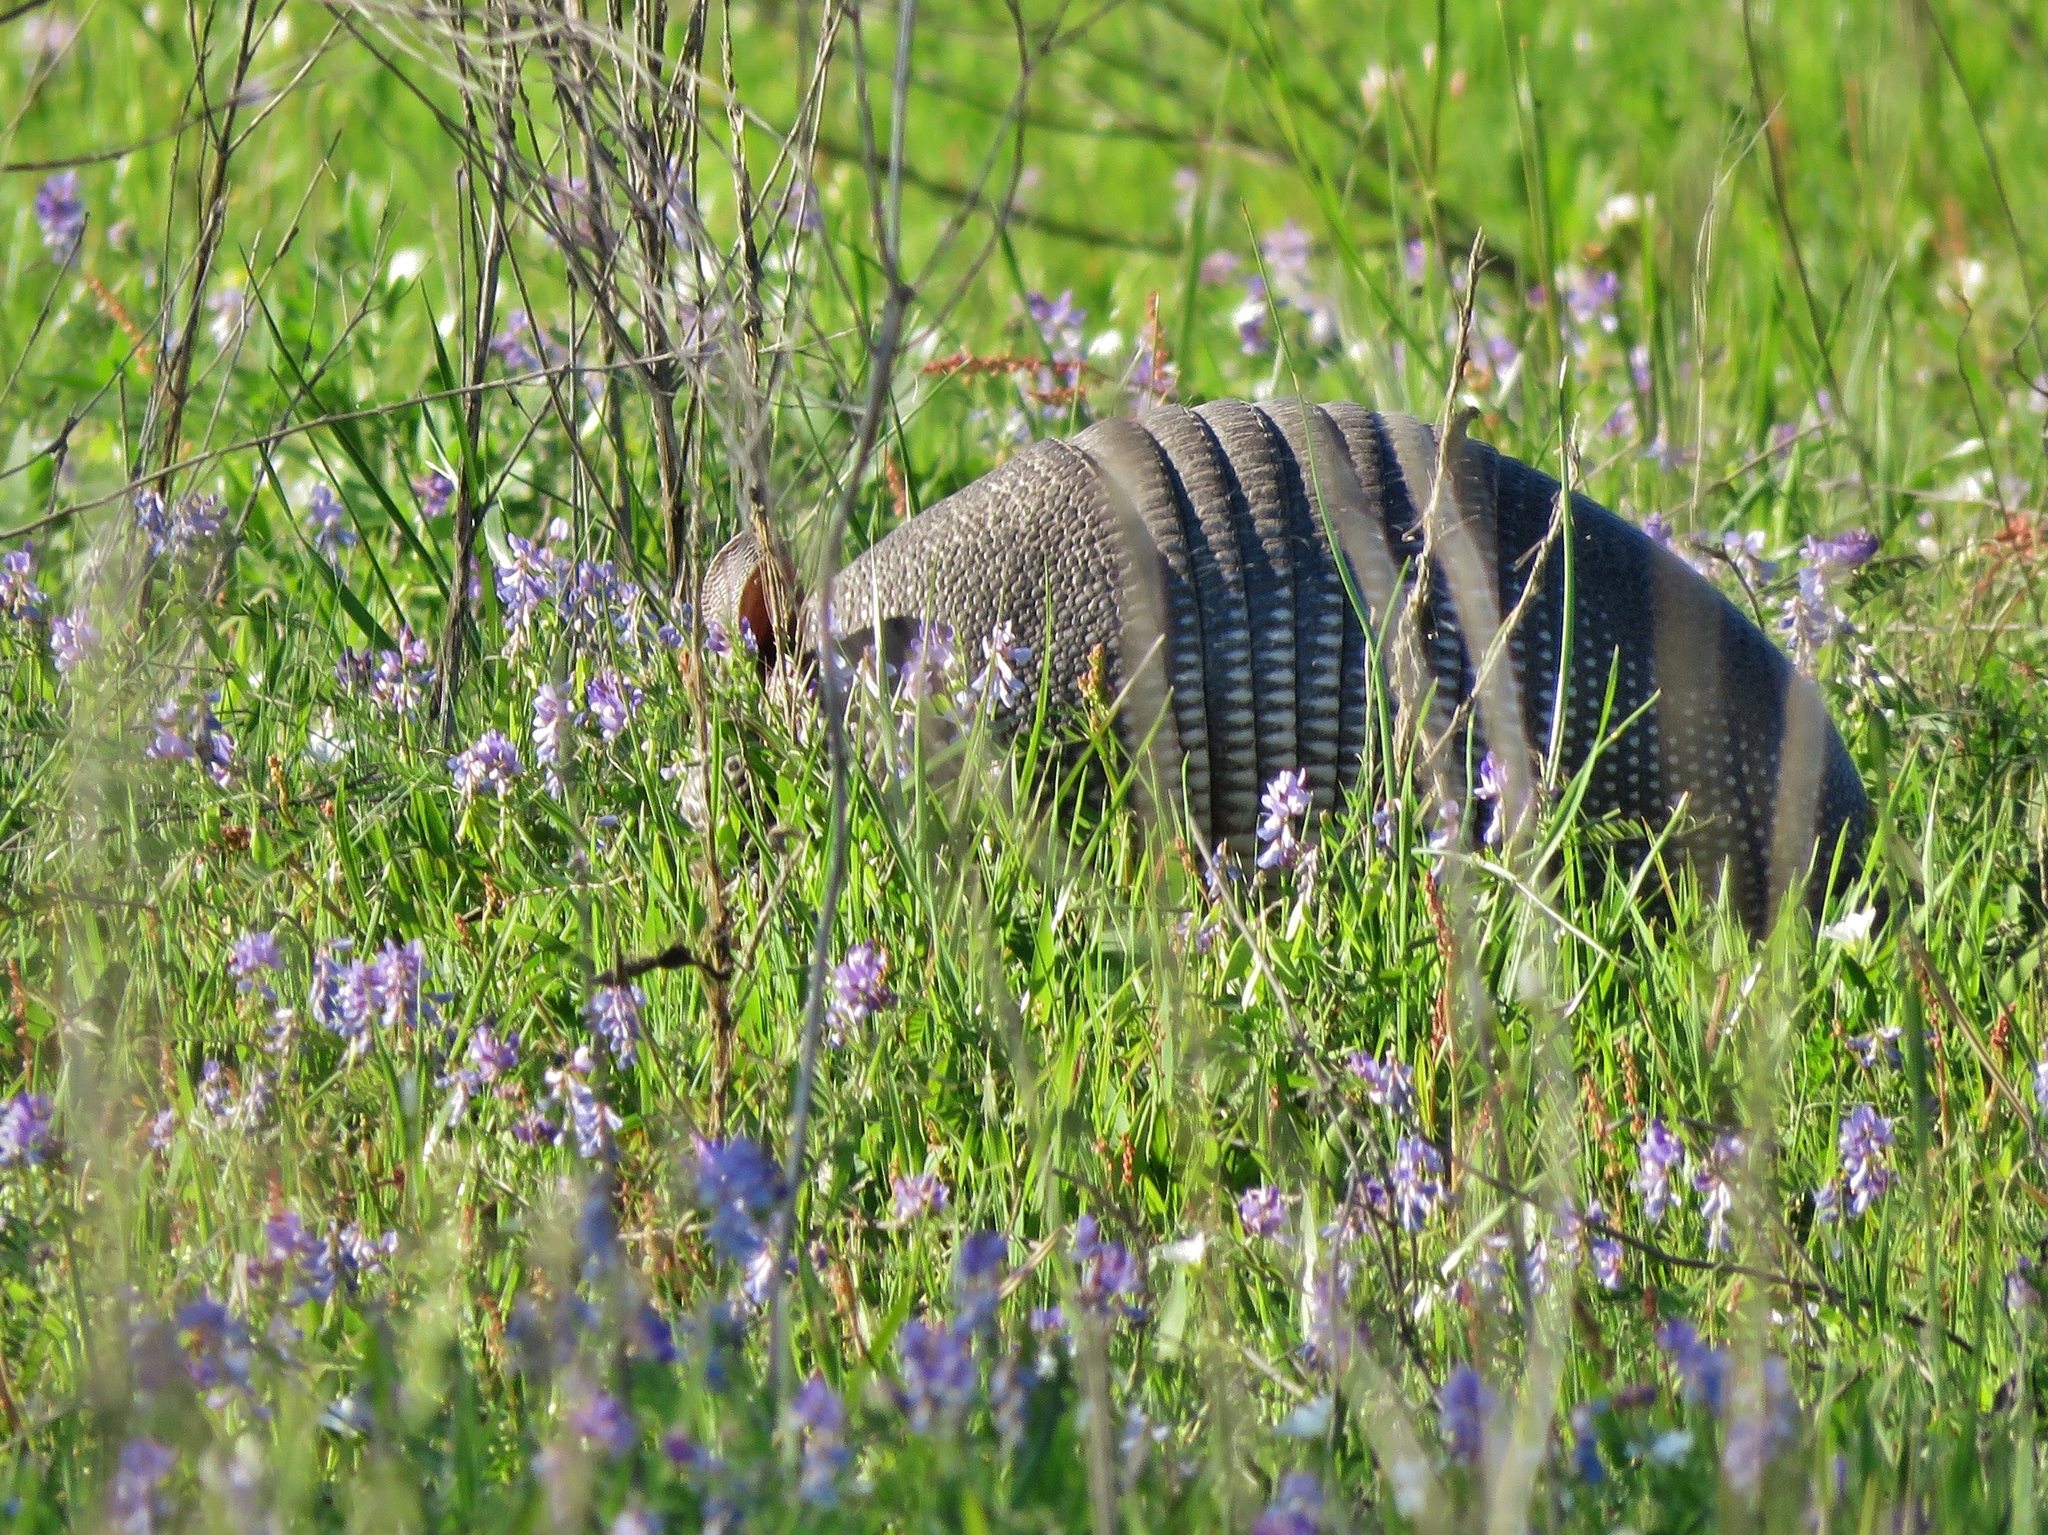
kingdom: Animalia
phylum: Chordata
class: Mammalia
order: Cingulata
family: Dasypodidae
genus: Dasypus
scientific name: Dasypus novemcinctus
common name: Nine-banded armadillo
